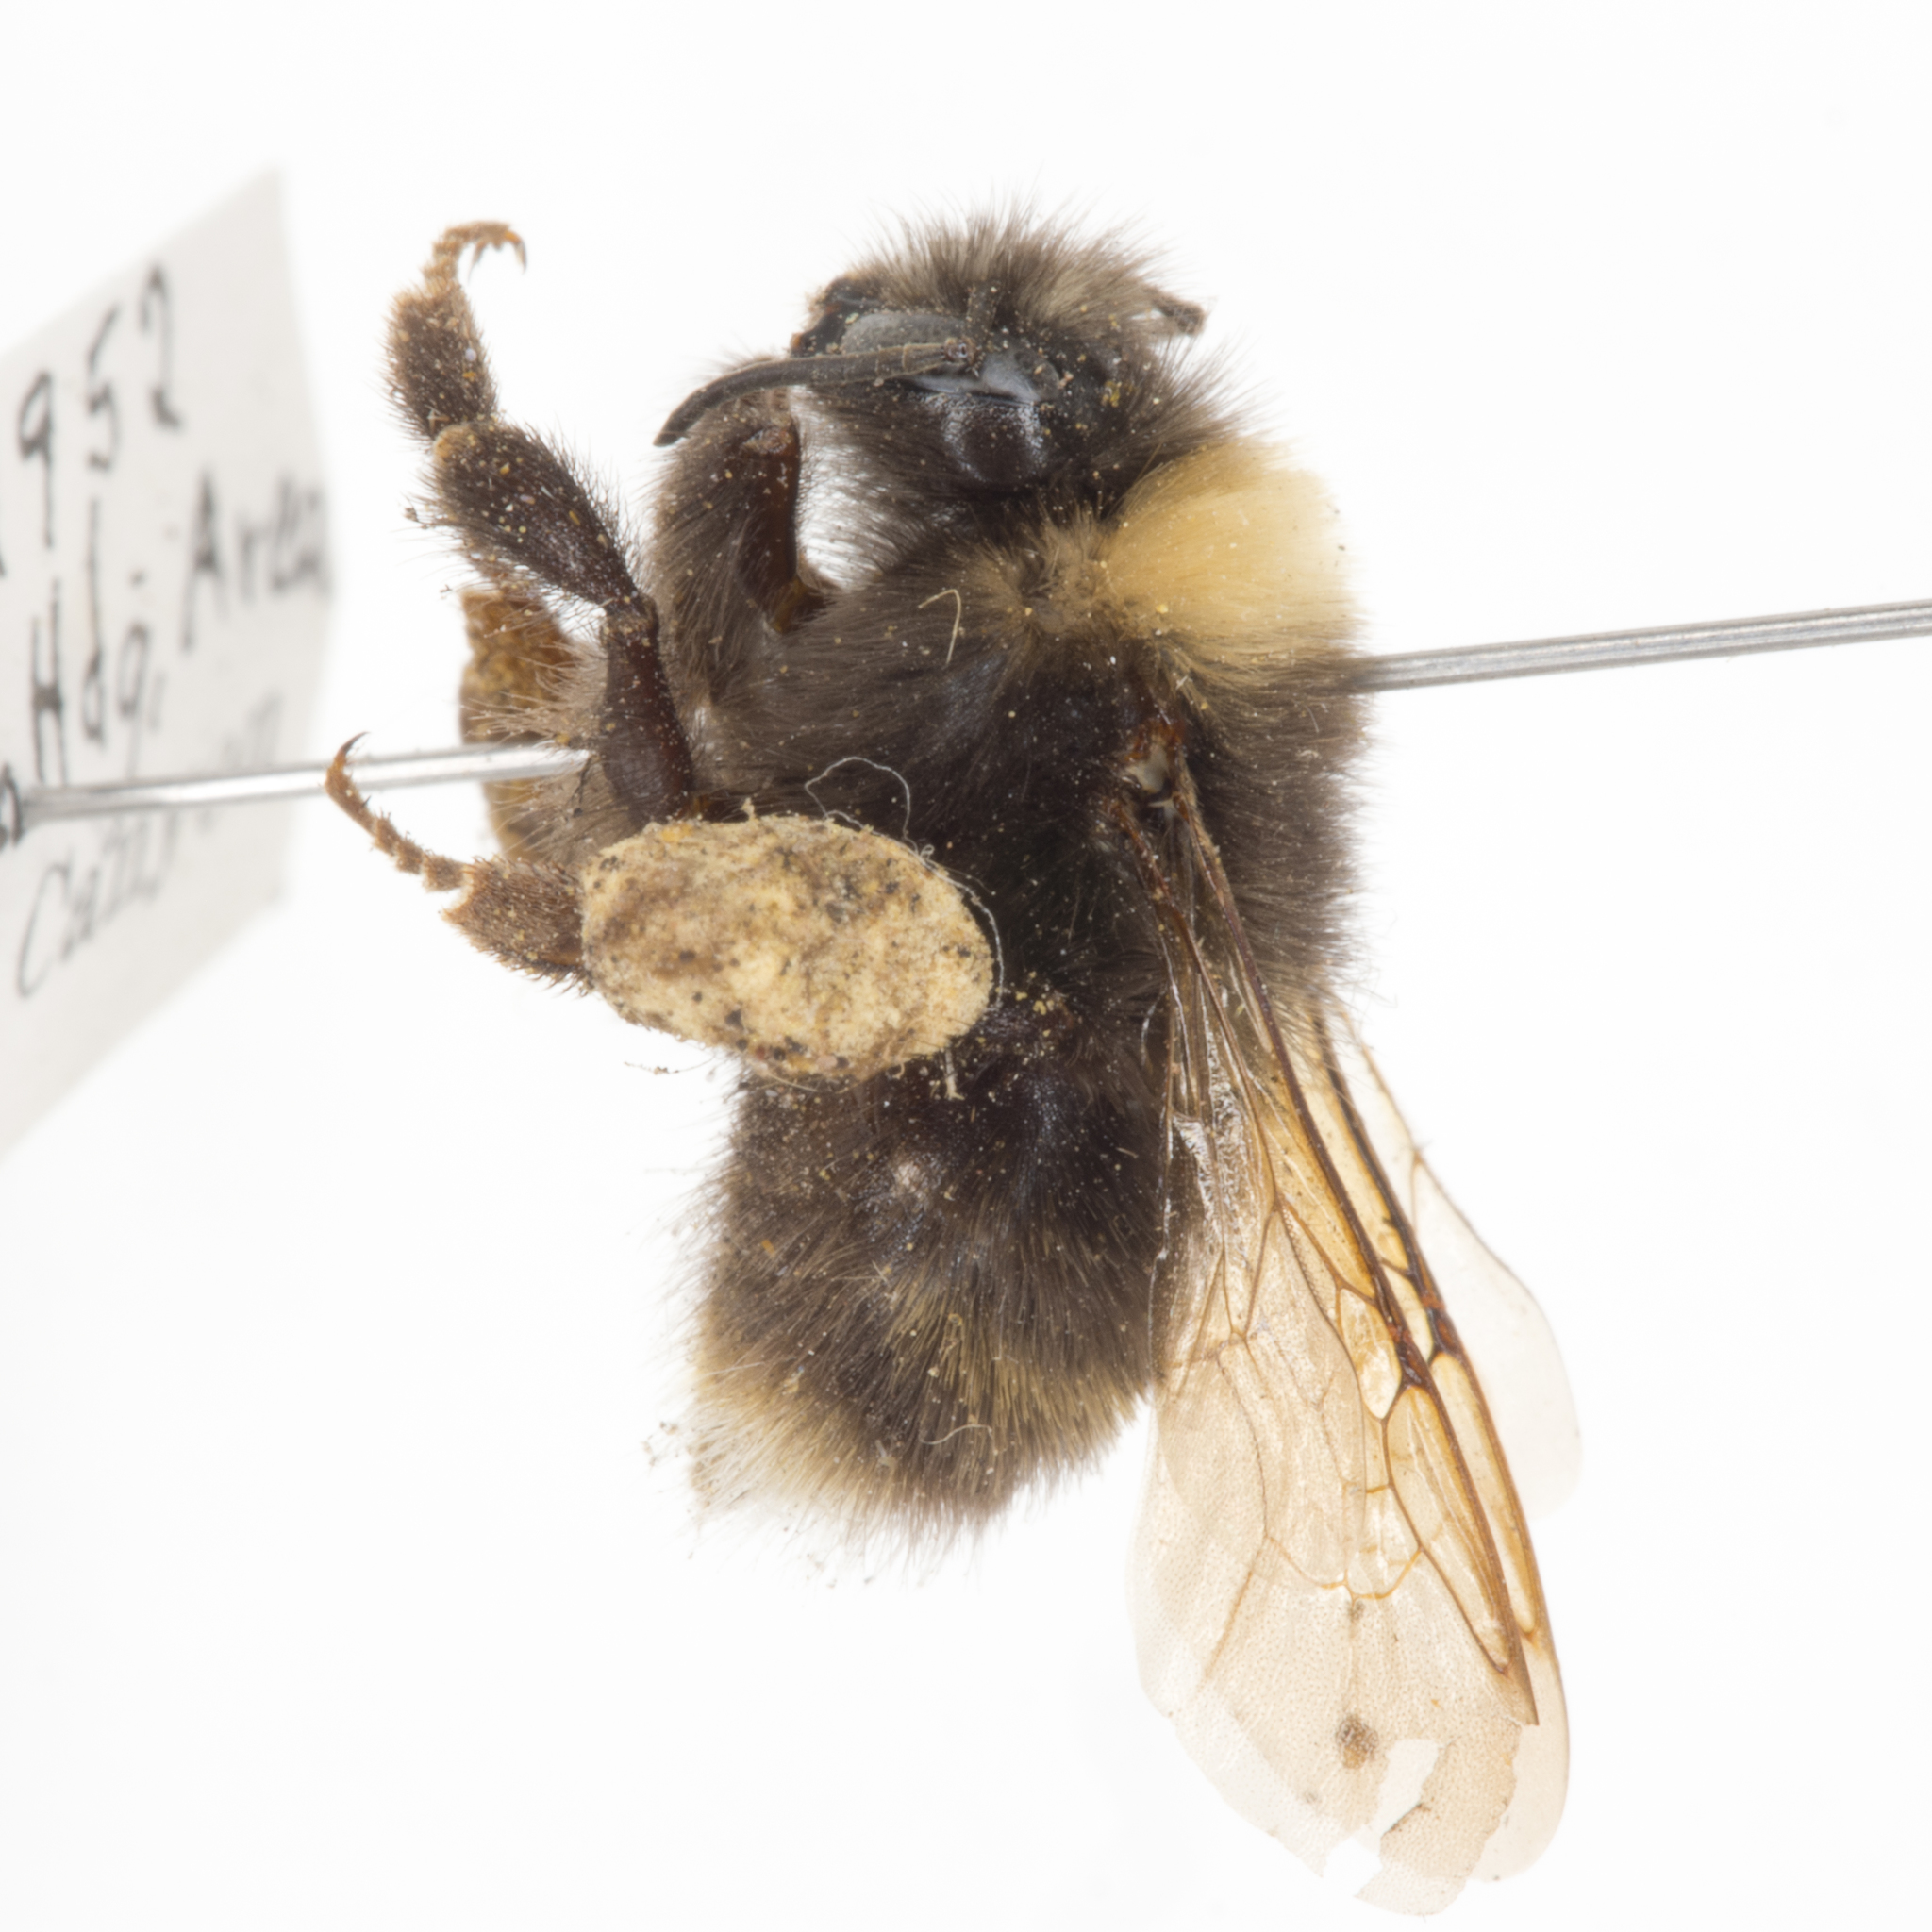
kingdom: Animalia
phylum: Arthropoda
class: Insecta
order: Hymenoptera
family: Apidae
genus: Bombus
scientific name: Bombus occidentalis
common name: Western bumble bee
